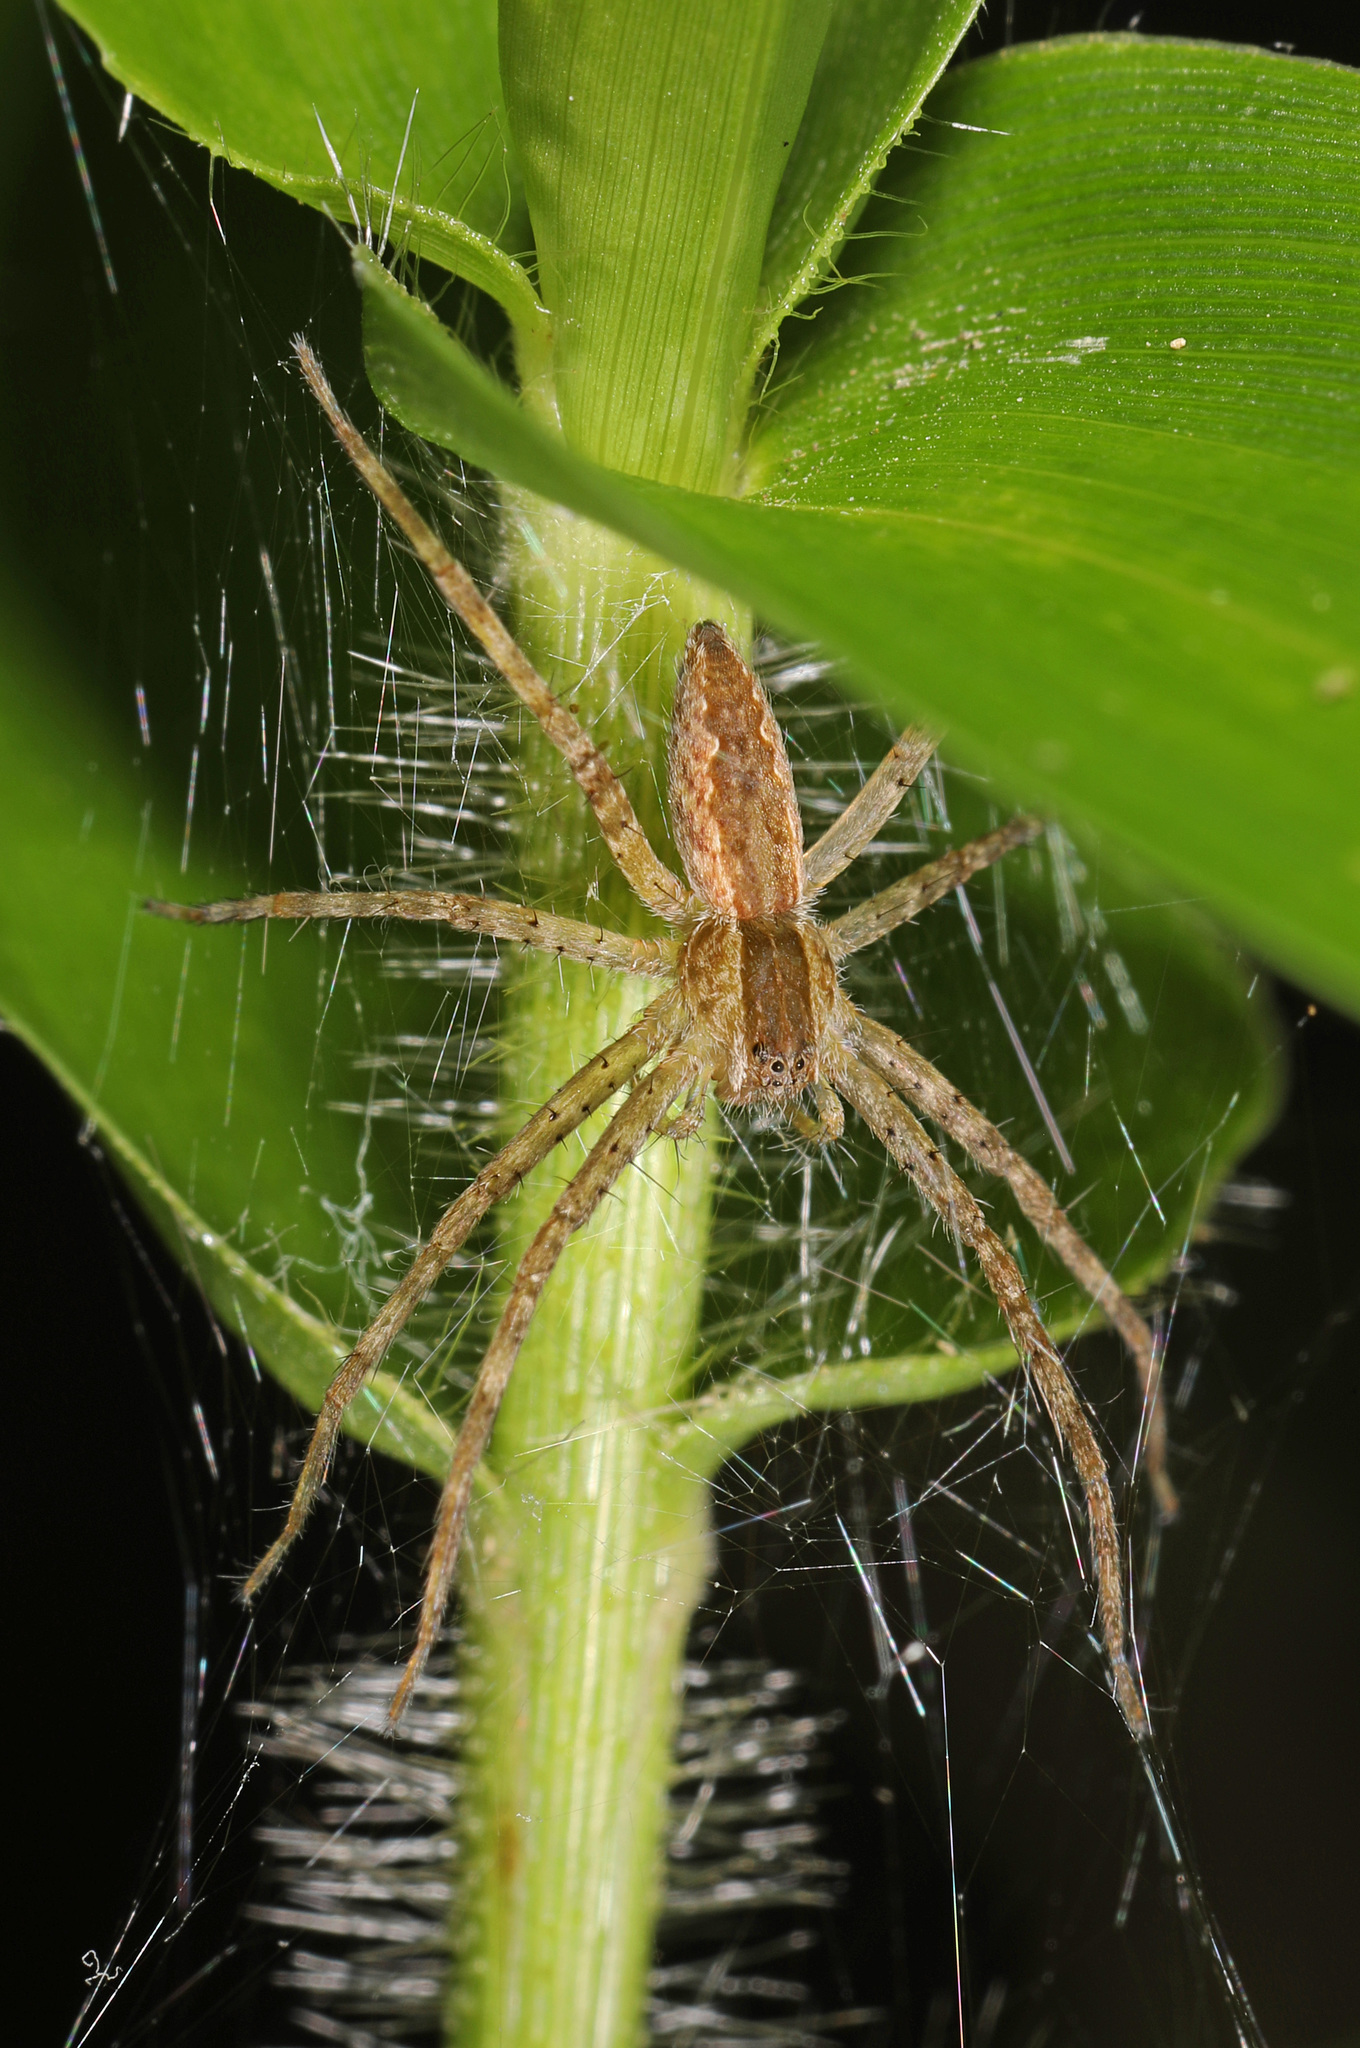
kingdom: Animalia
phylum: Arthropoda
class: Arachnida
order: Araneae
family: Pisauridae
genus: Pisaurina
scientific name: Pisaurina mira
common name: American nursery web spider
